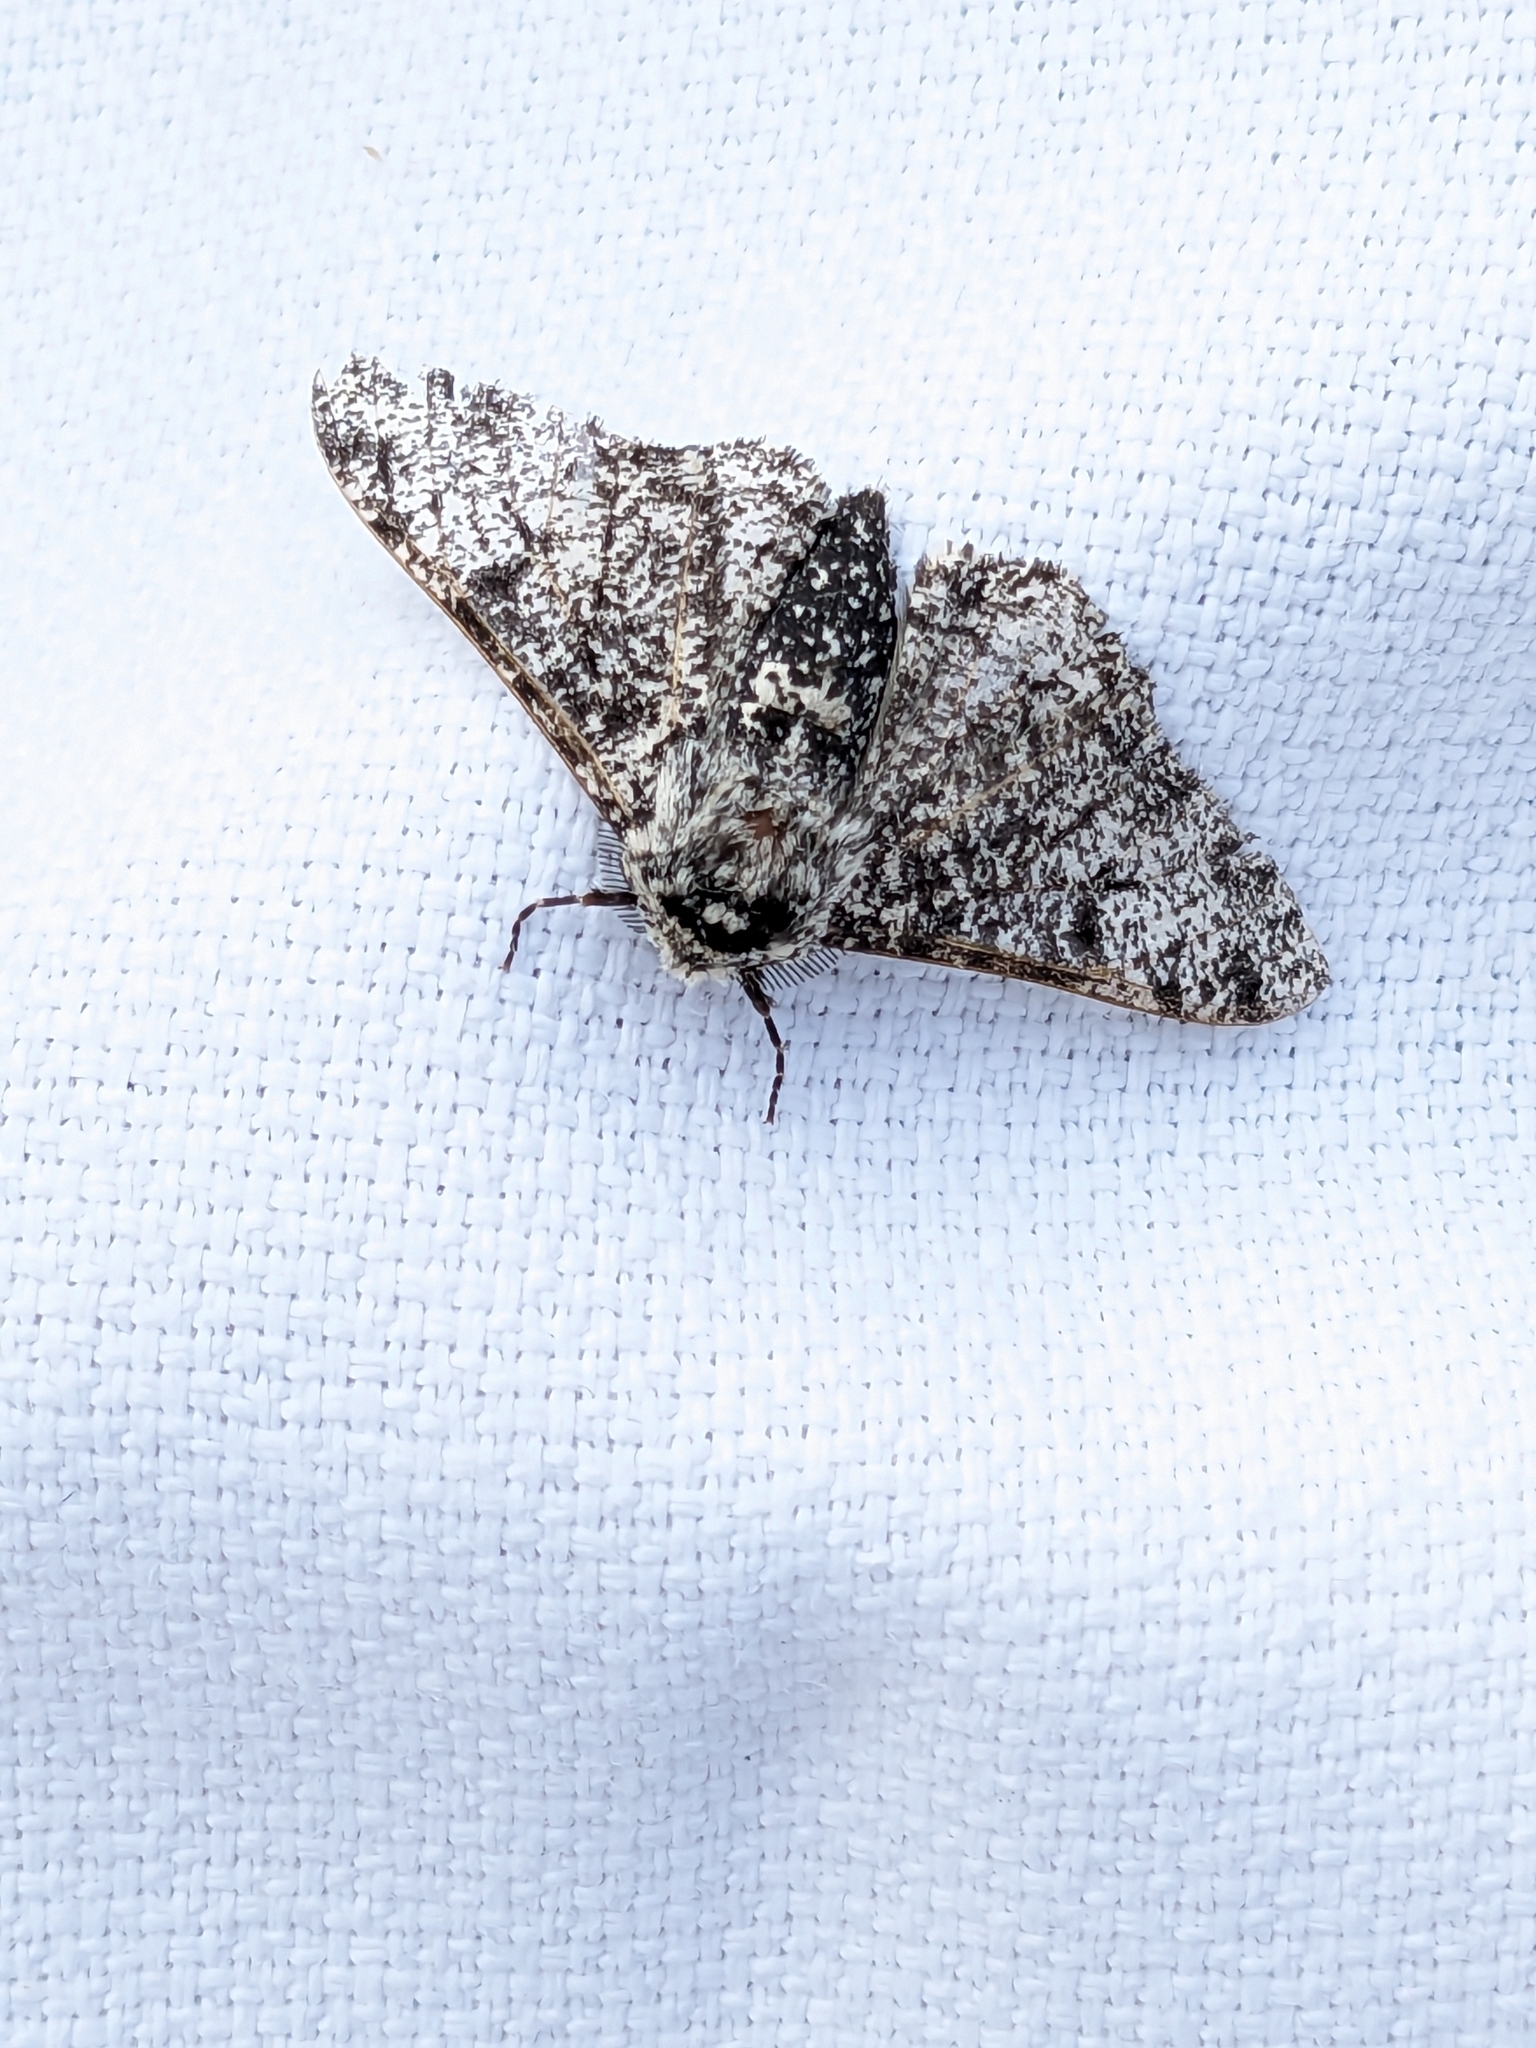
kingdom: Animalia
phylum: Arthropoda
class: Insecta
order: Lepidoptera
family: Geometridae
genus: Biston
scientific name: Biston betularia
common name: Peppered moth
